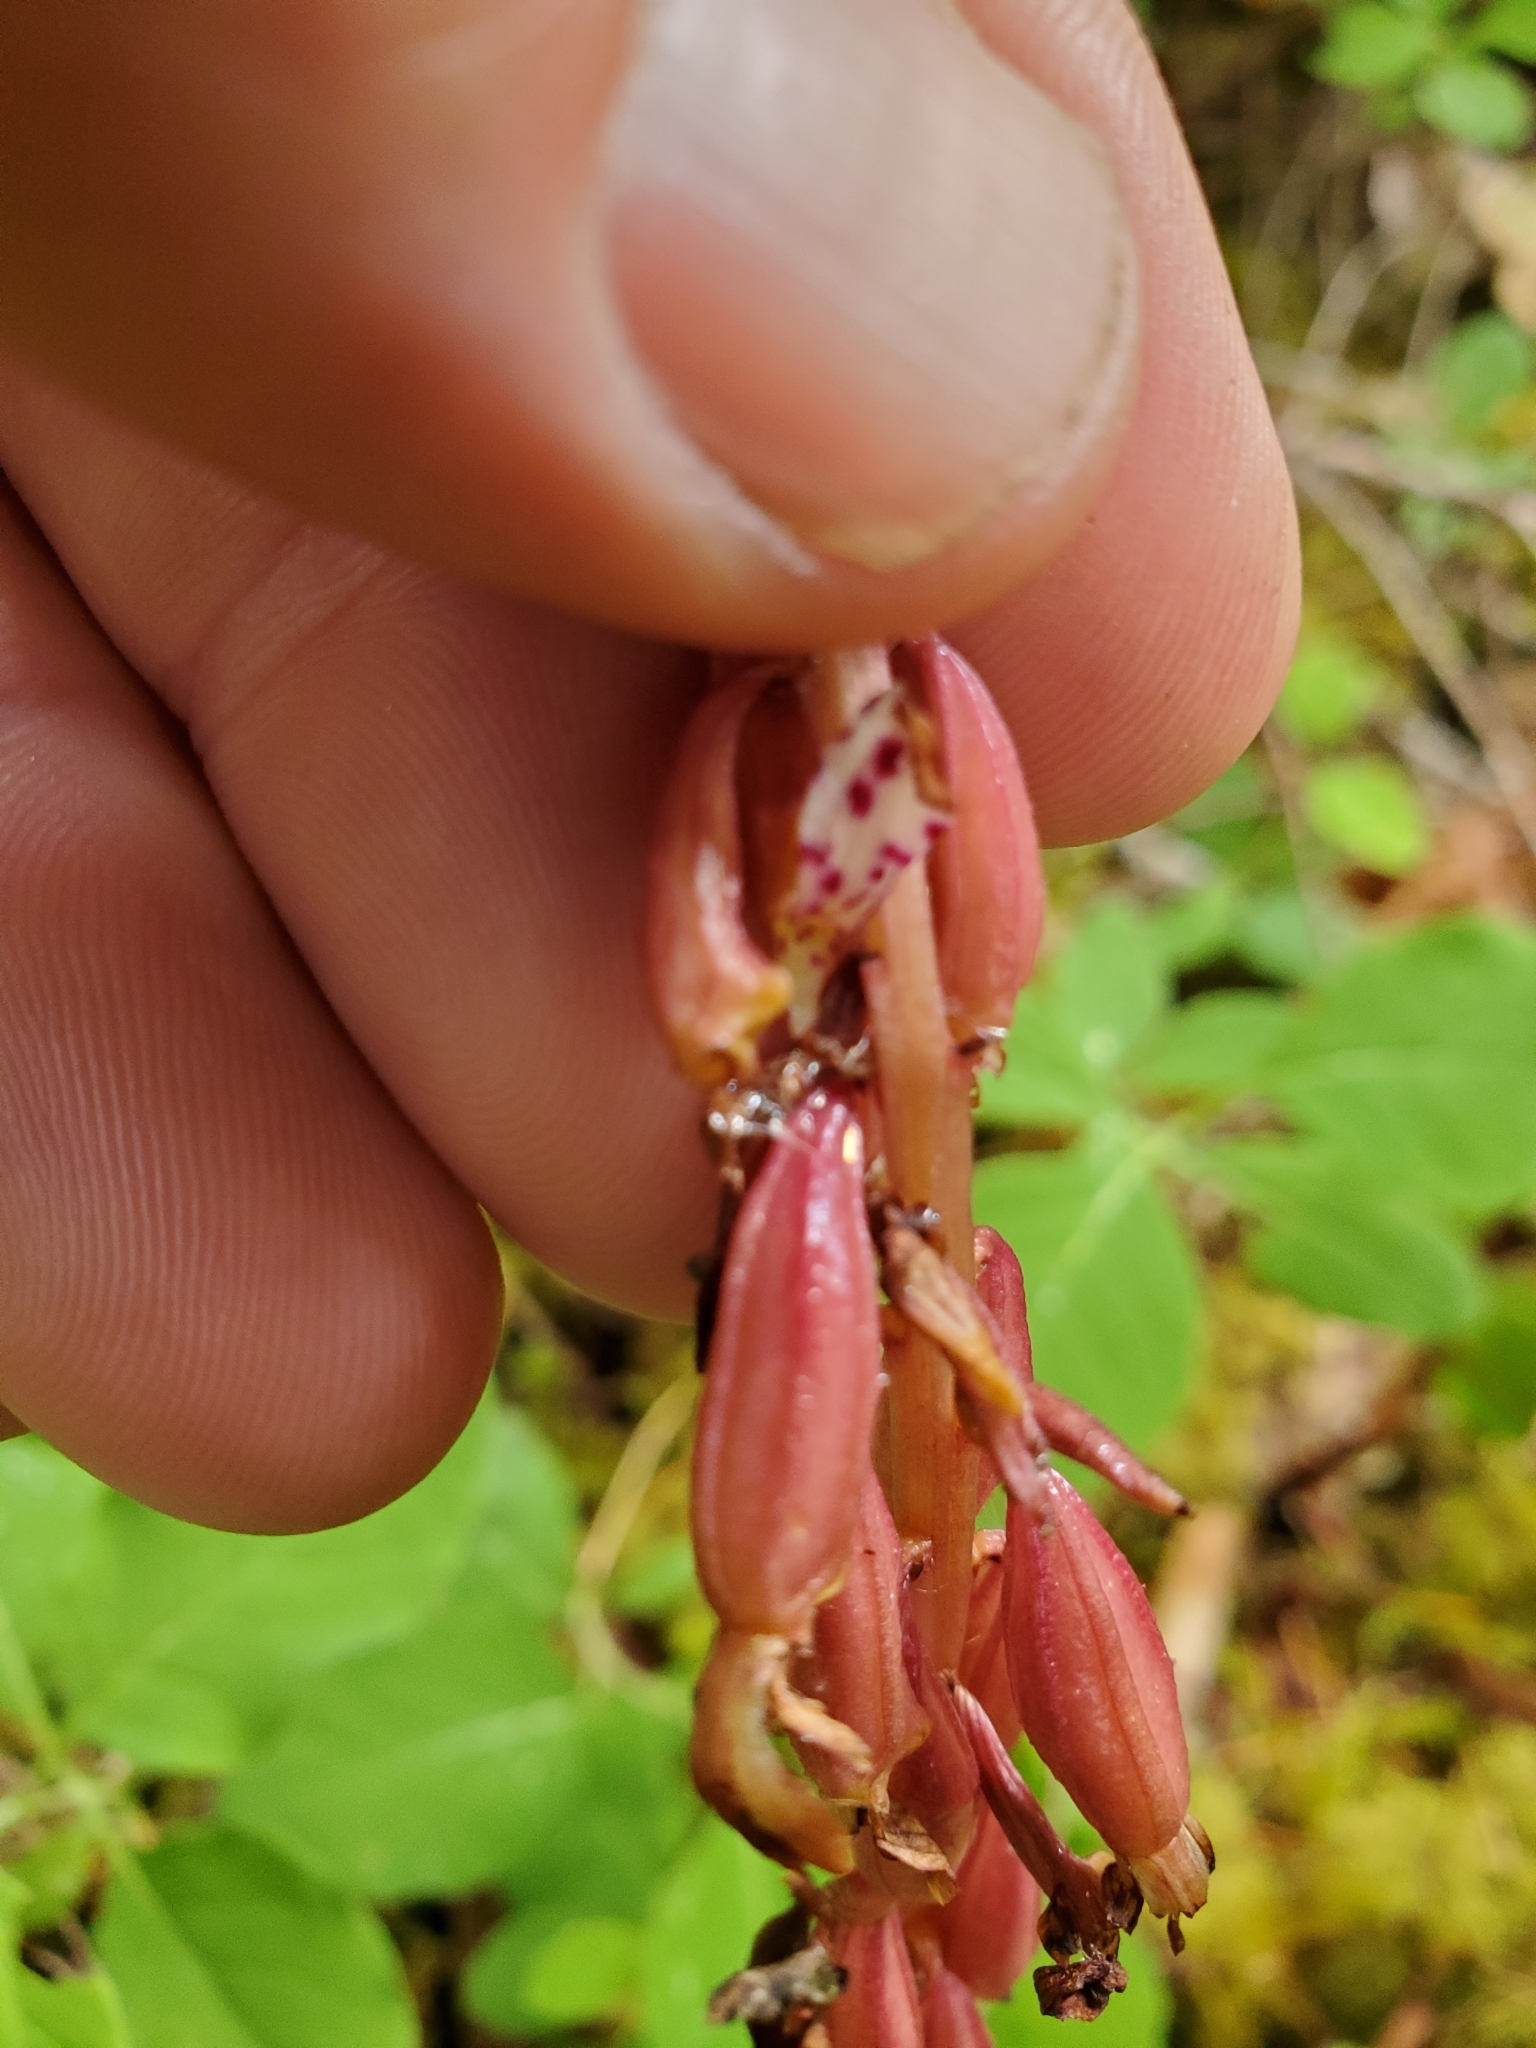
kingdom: Plantae
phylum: Tracheophyta
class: Liliopsida
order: Asparagales
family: Orchidaceae
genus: Corallorhiza
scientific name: Corallorhiza maculata
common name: Spotted coralroot
